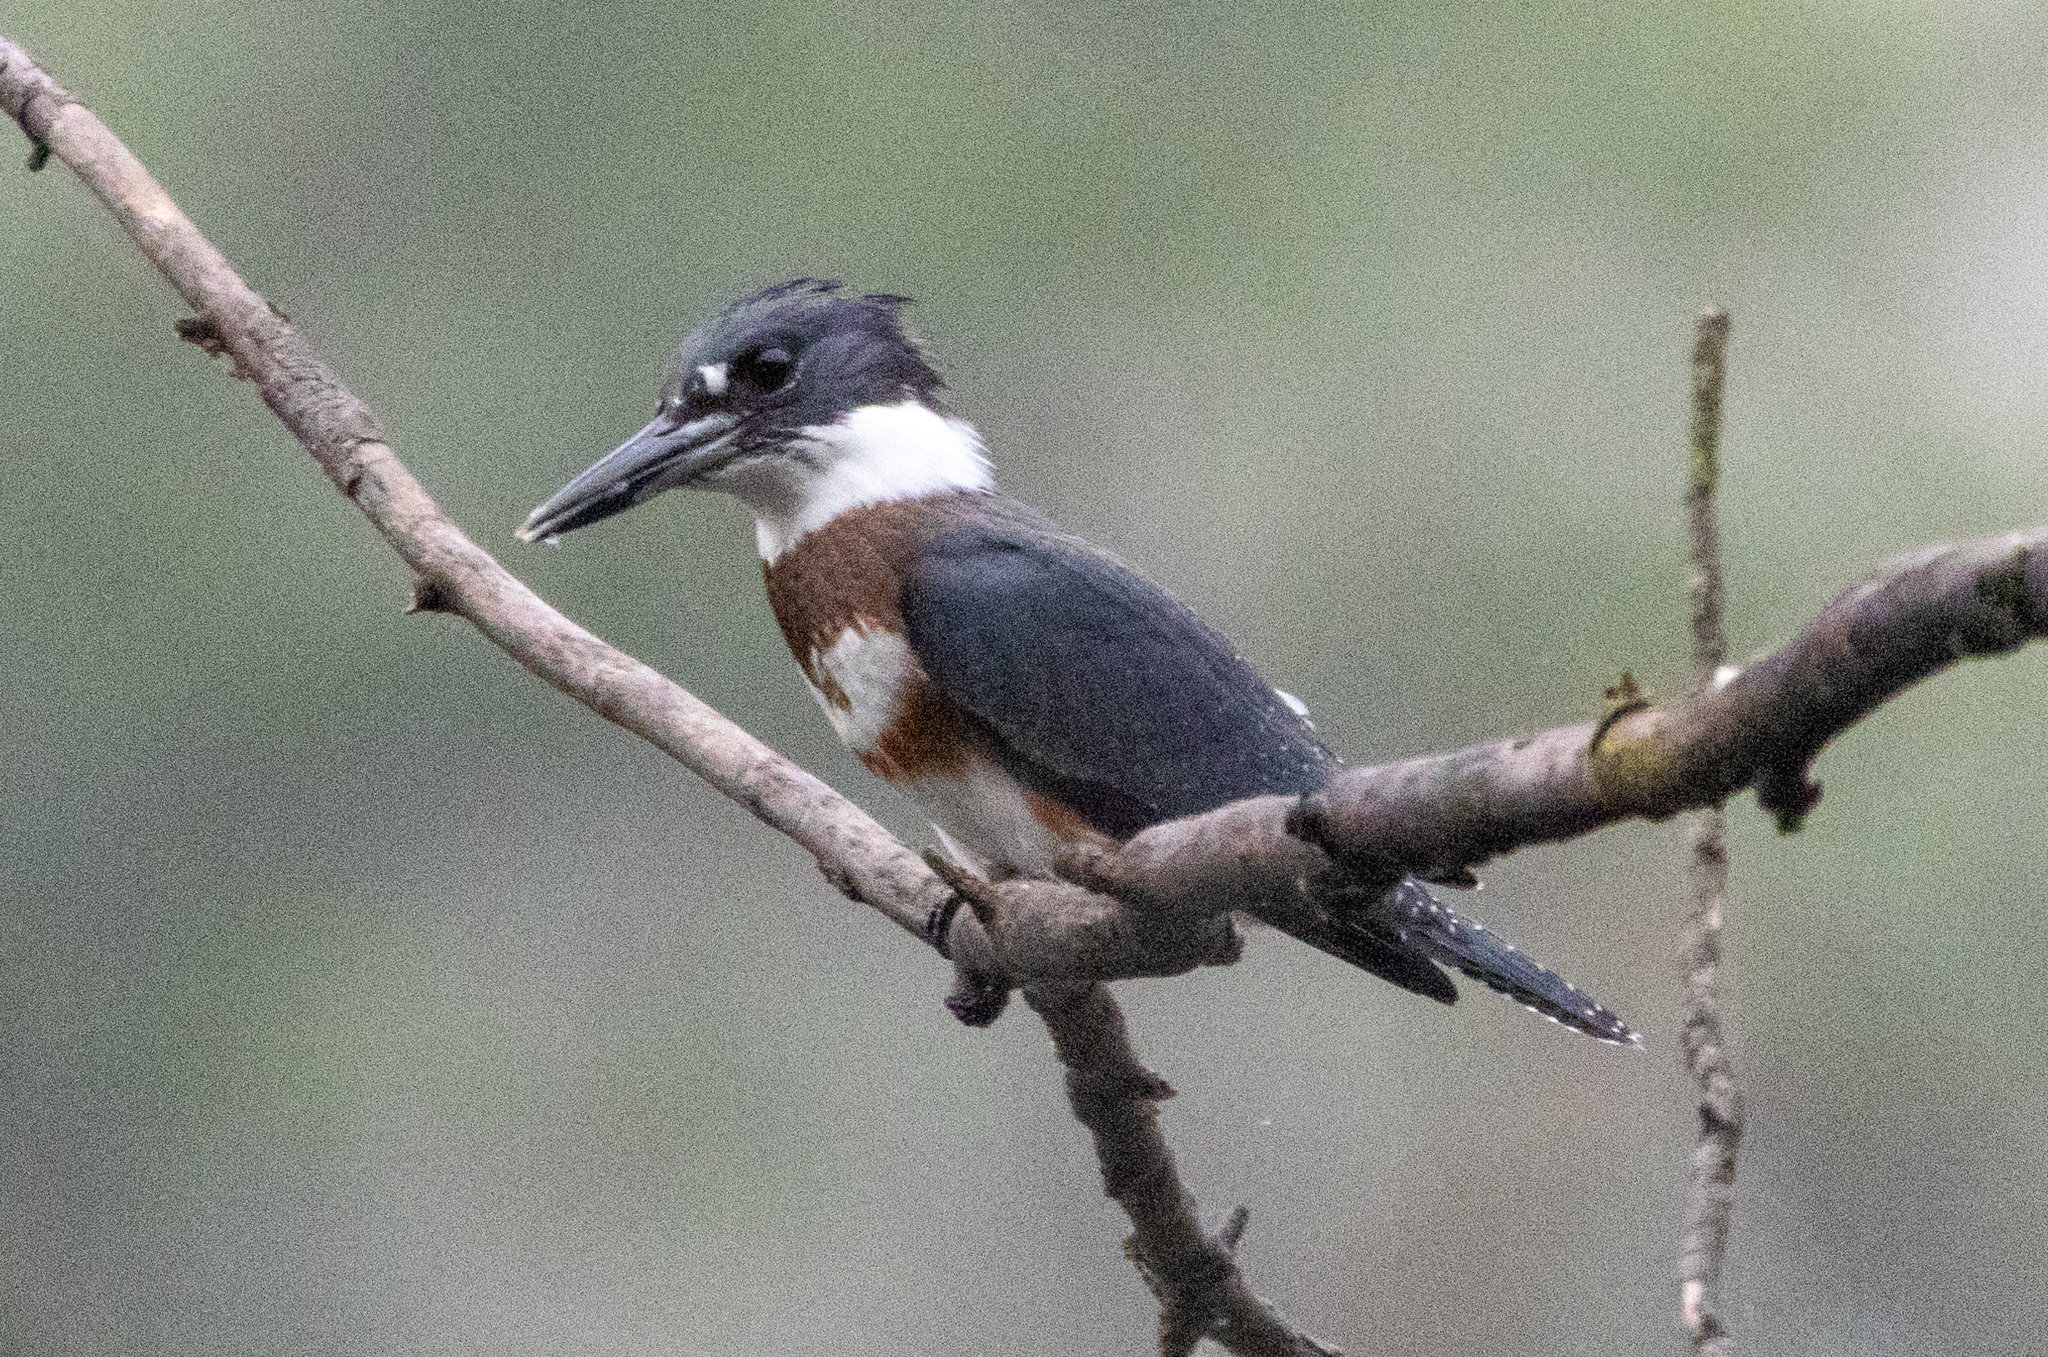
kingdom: Animalia
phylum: Chordata
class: Aves
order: Coraciiformes
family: Alcedinidae
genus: Megaceryle
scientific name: Megaceryle alcyon
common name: Belted kingfisher
